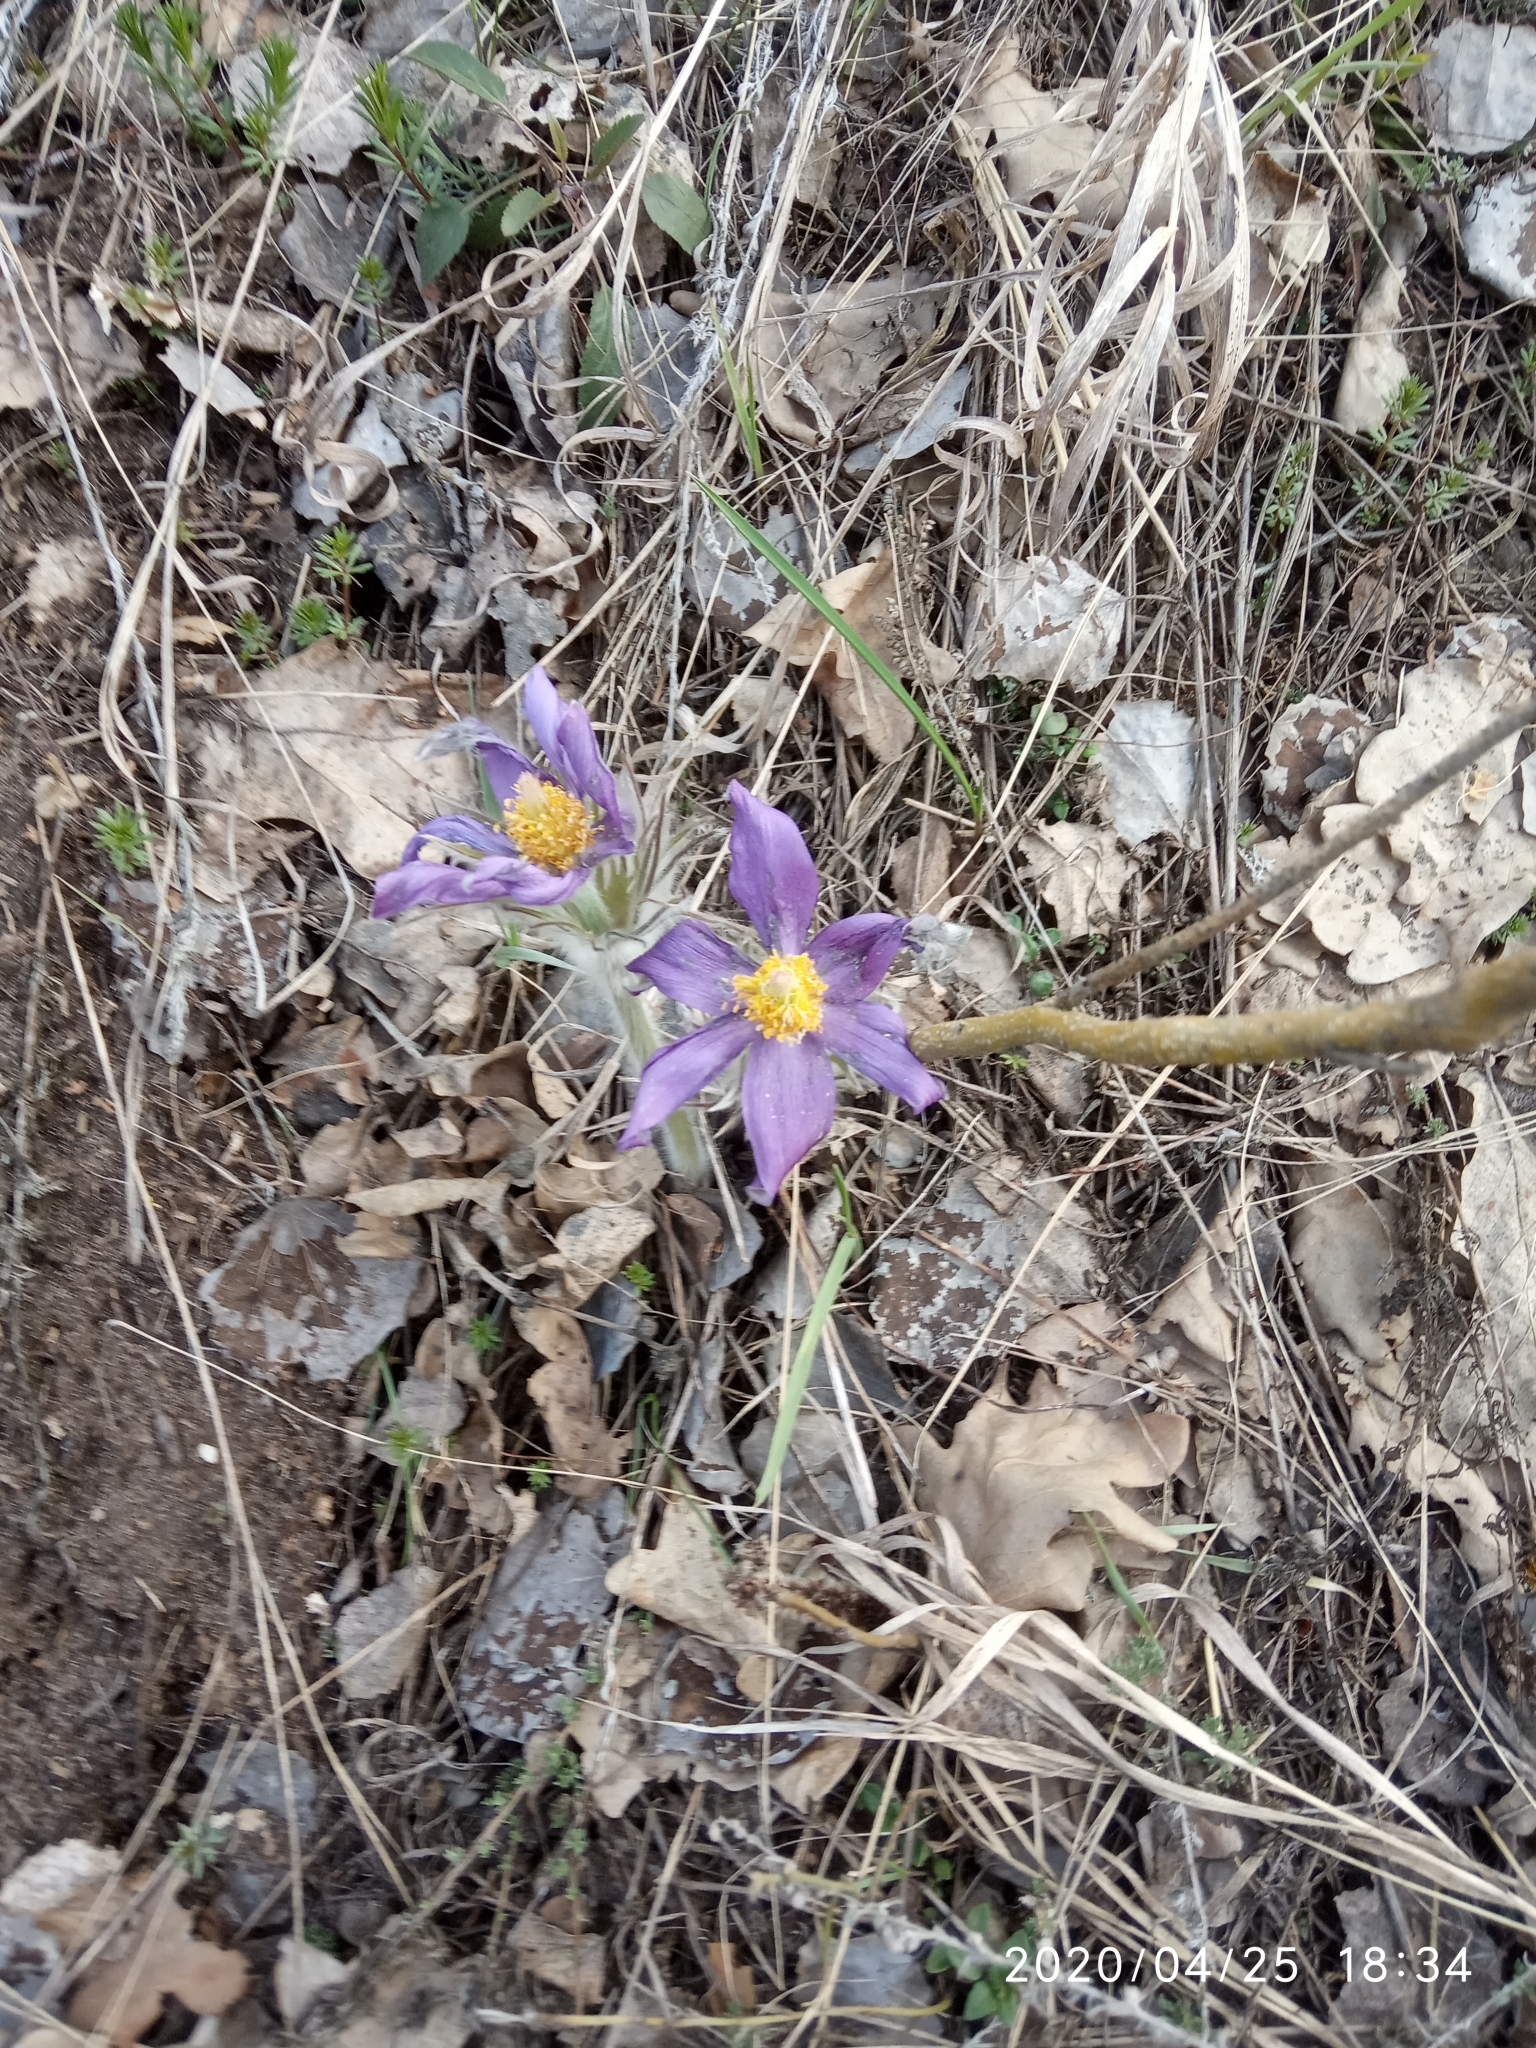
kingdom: Plantae
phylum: Tracheophyta
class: Magnoliopsida
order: Ranunculales
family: Ranunculaceae
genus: Pulsatilla
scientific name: Pulsatilla patens
